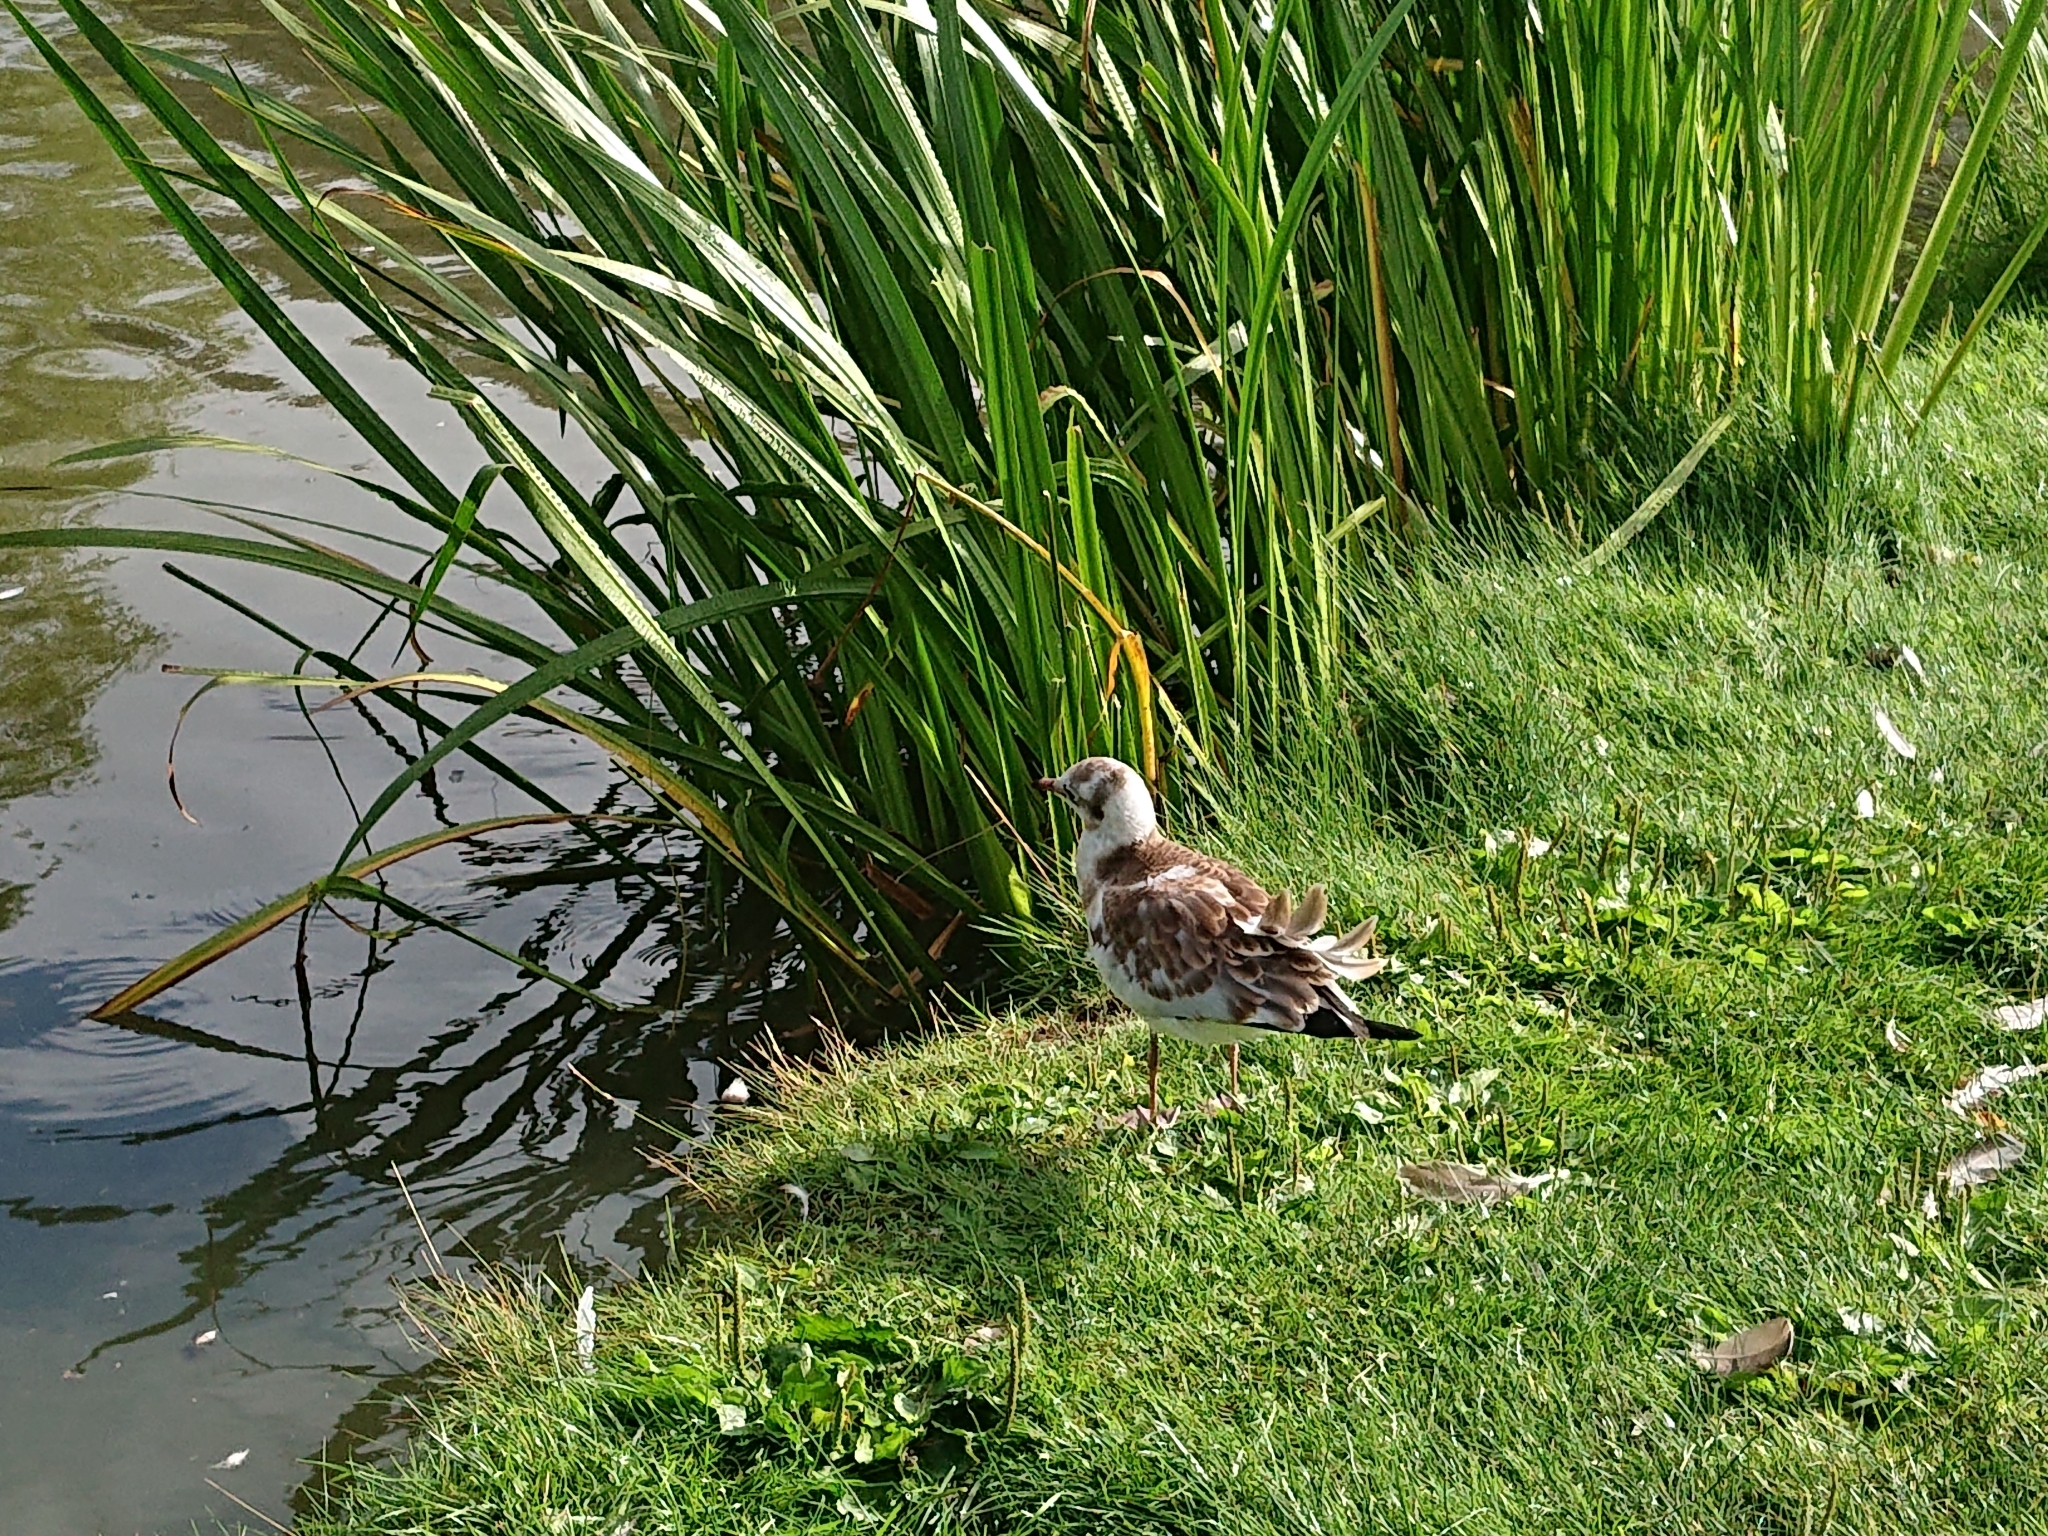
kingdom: Animalia
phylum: Chordata
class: Aves
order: Charadriiformes
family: Laridae
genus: Chroicocephalus
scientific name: Chroicocephalus ridibundus
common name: Black-headed gull
